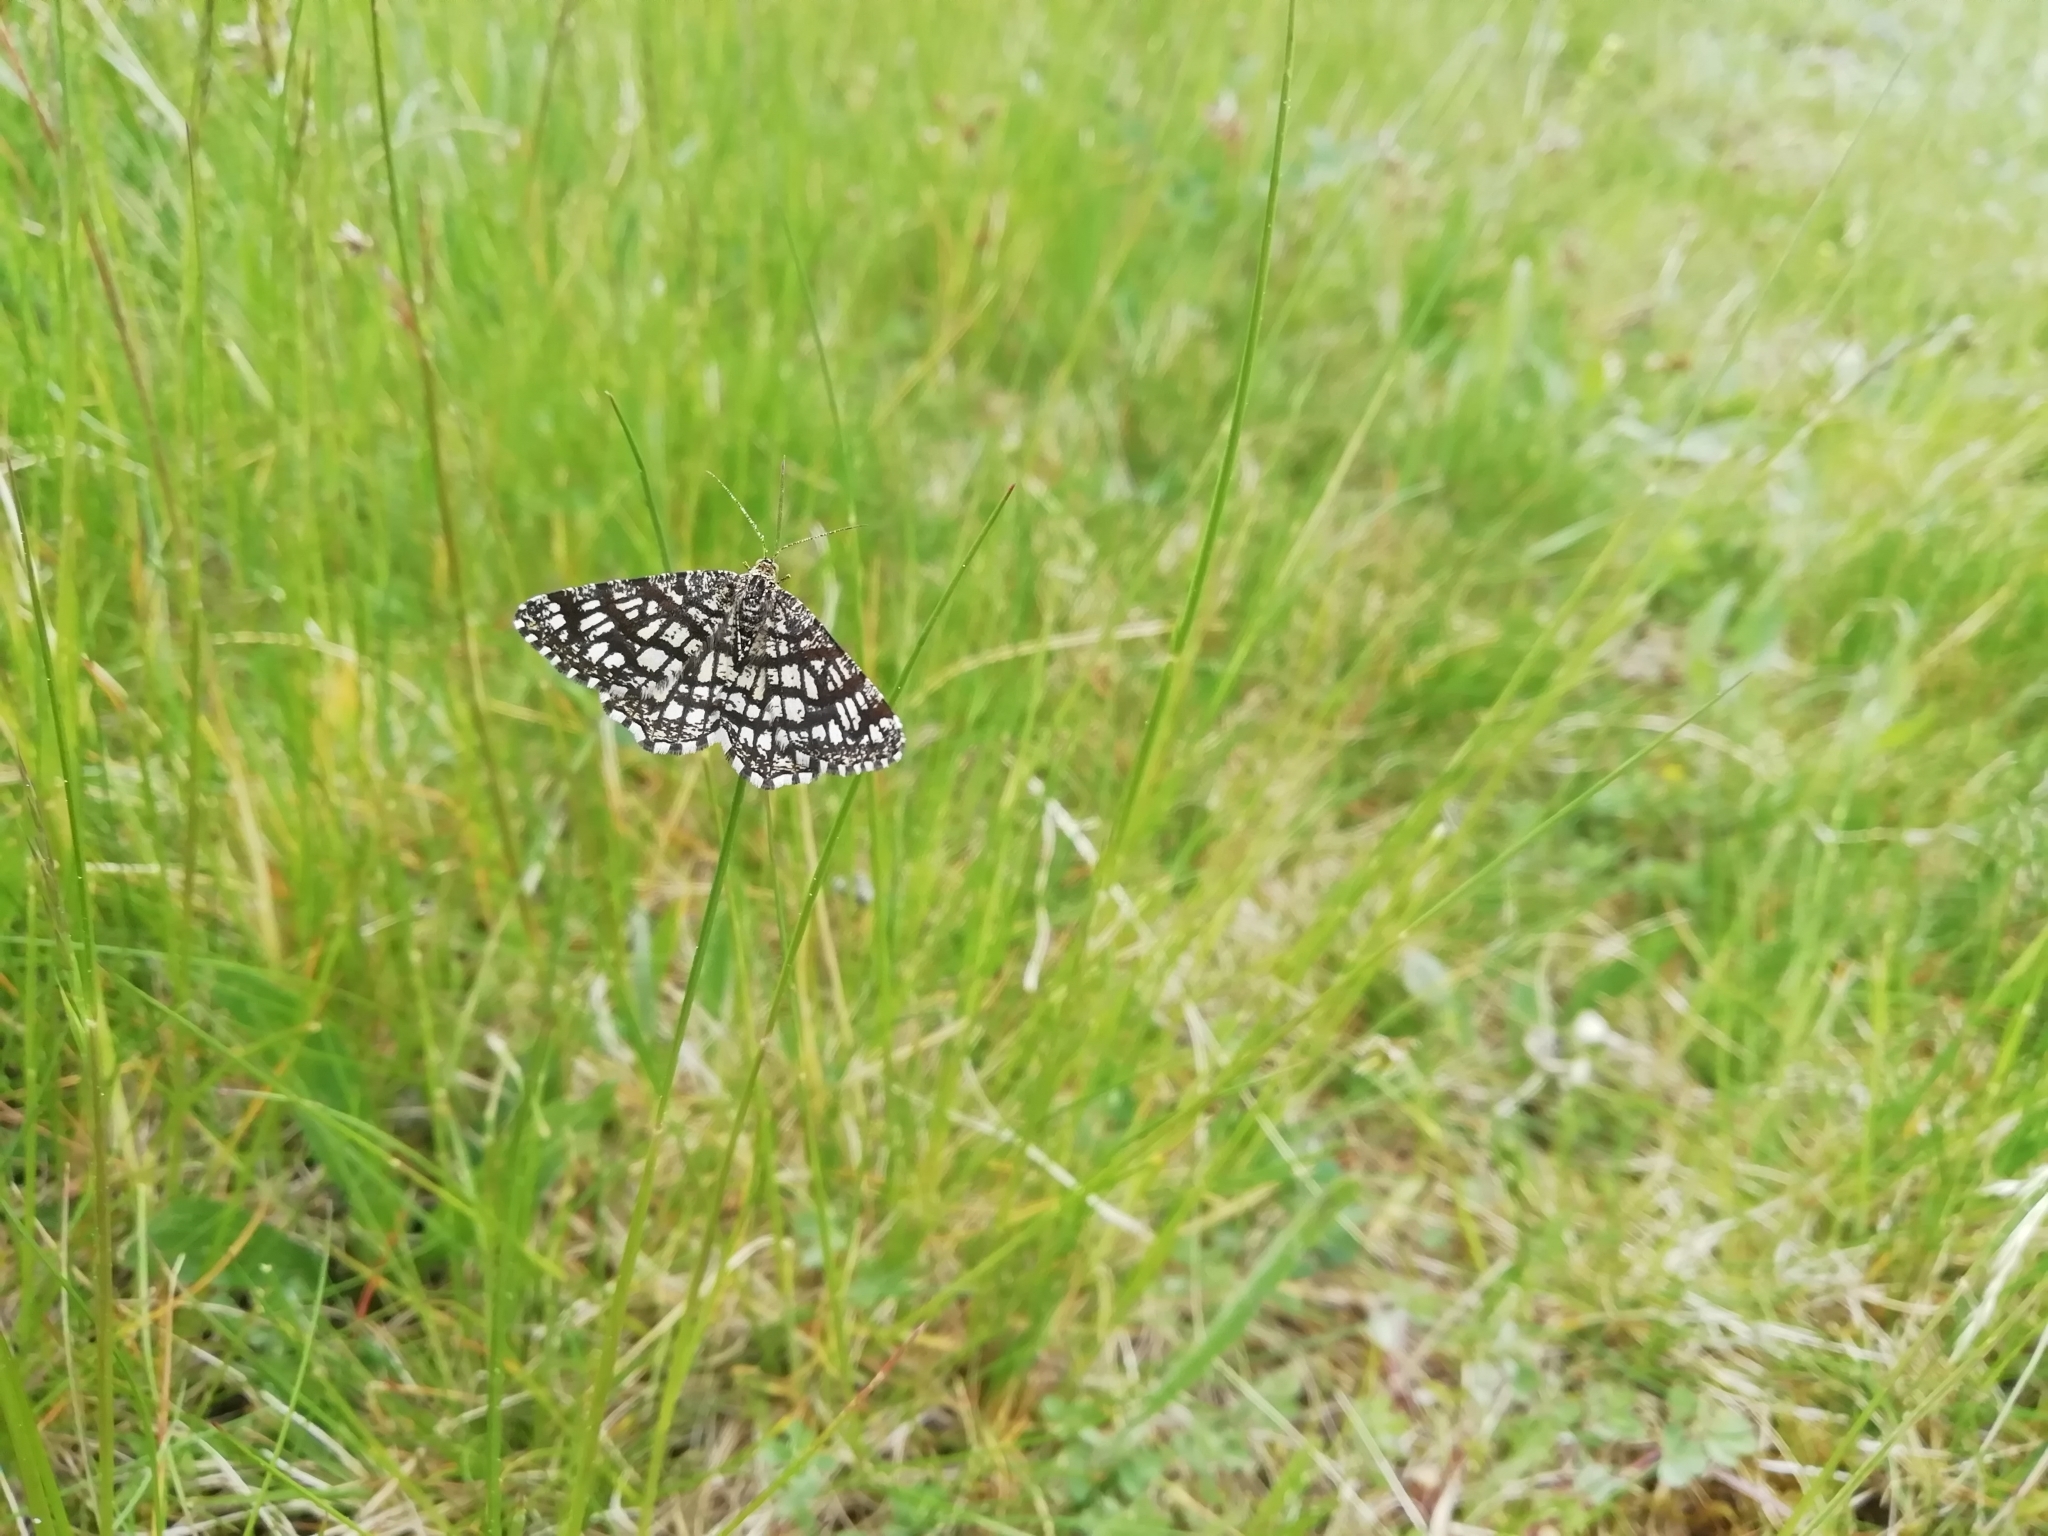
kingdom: Animalia
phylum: Arthropoda
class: Insecta
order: Lepidoptera
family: Geometridae
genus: Chiasmia
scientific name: Chiasmia clathrata
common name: Latticed heath
